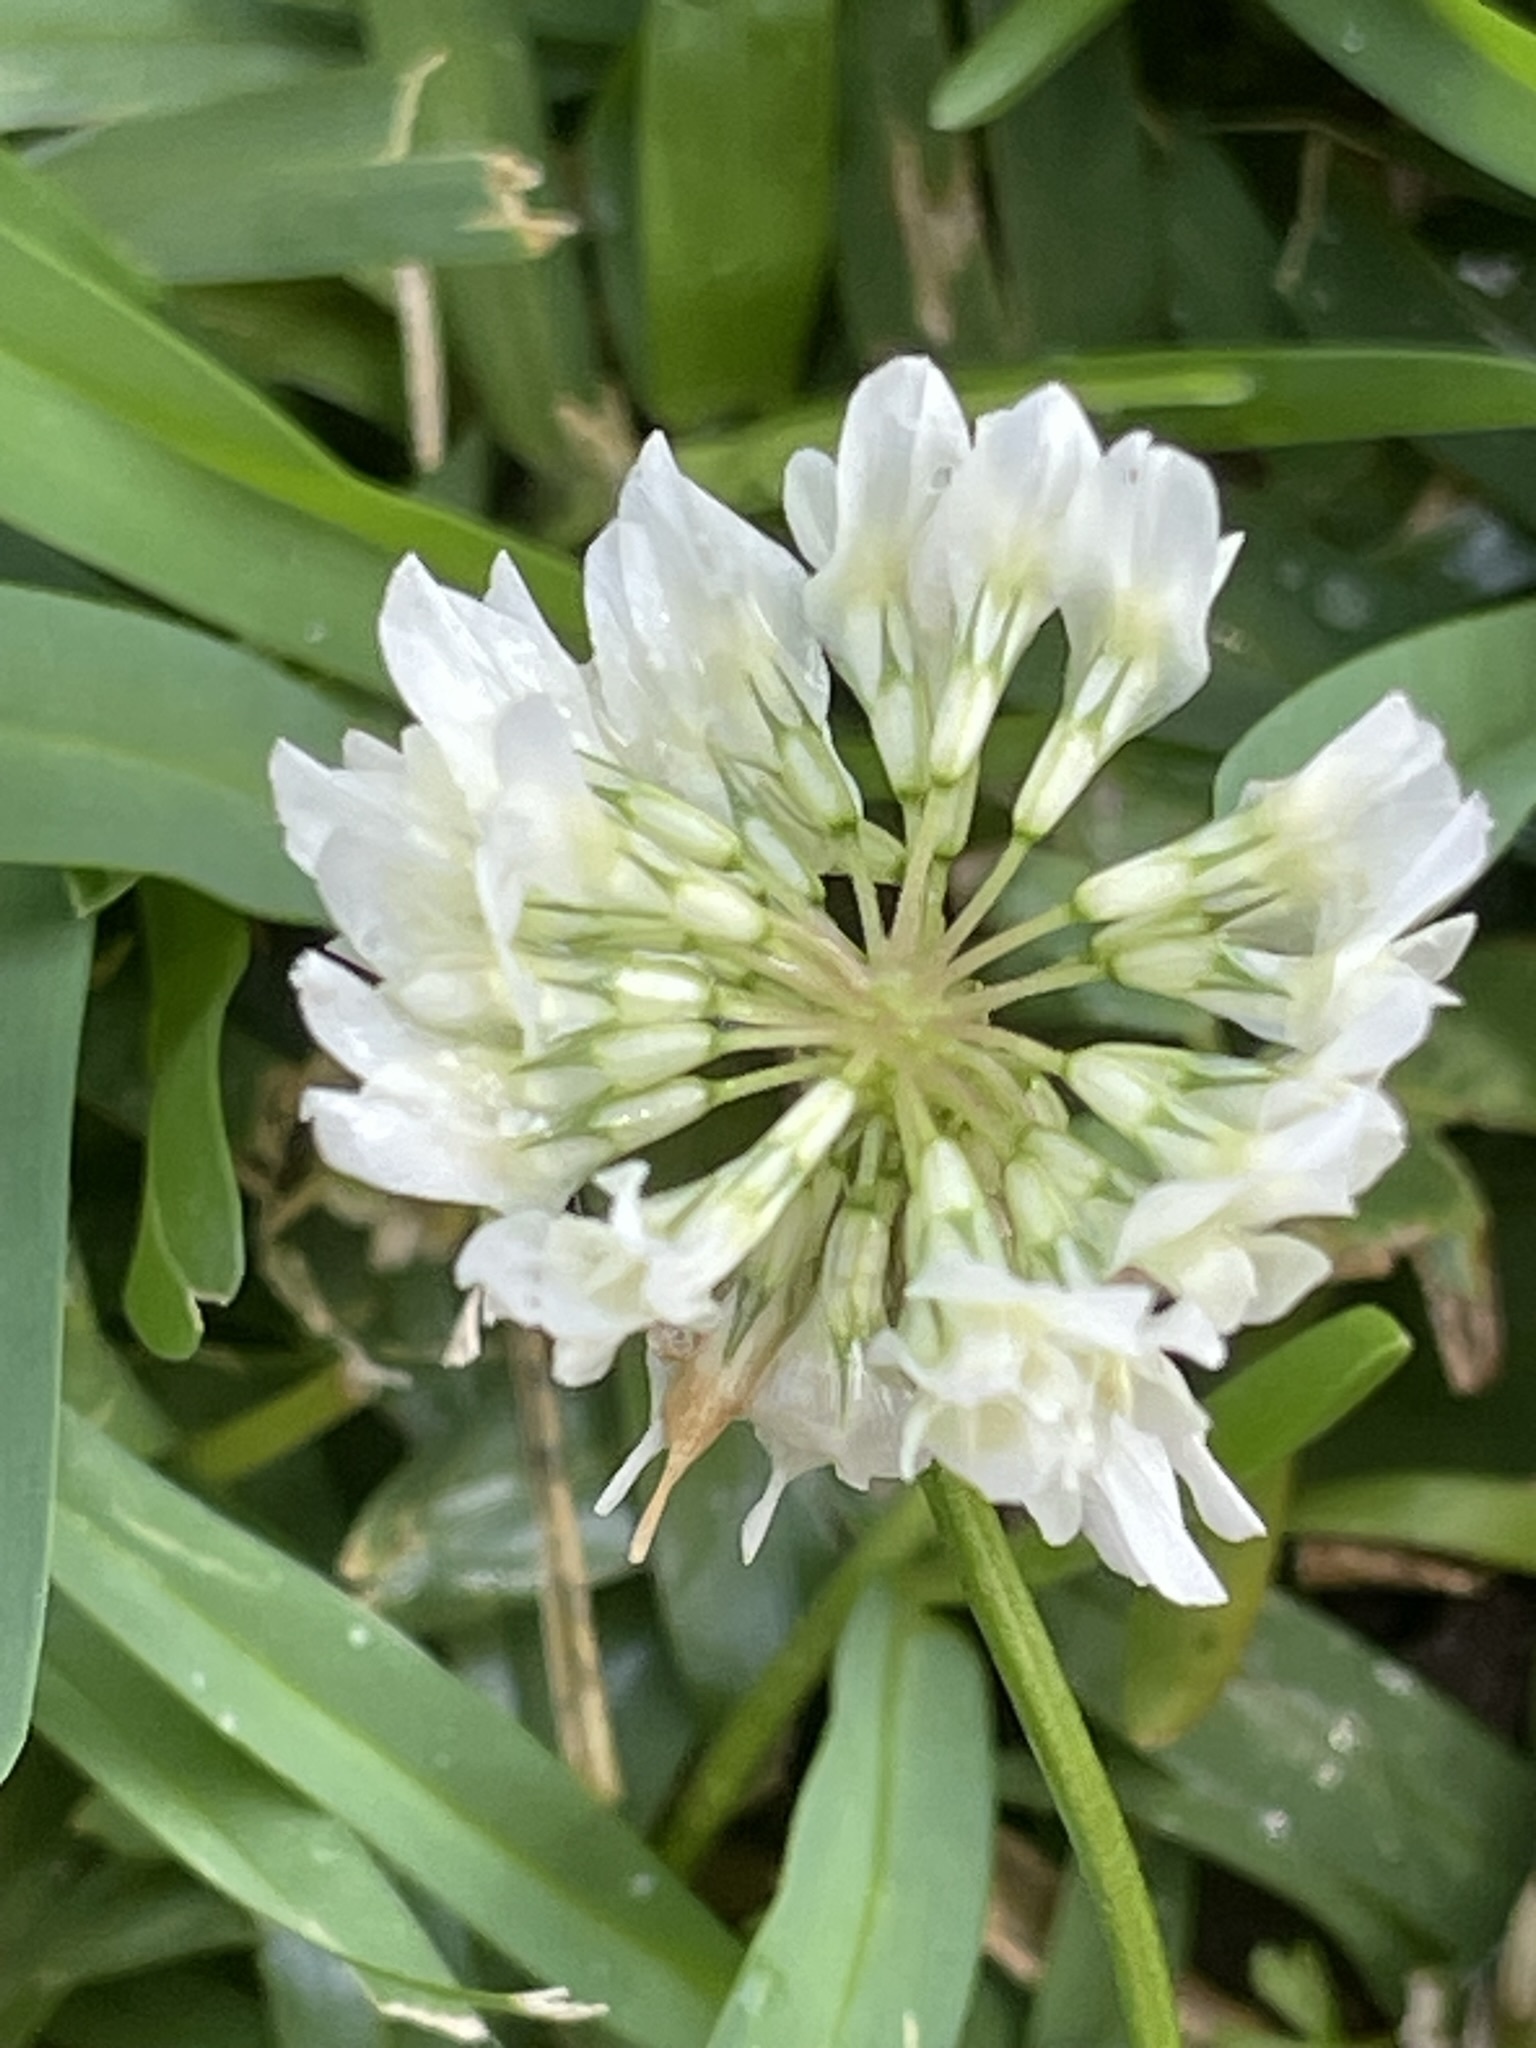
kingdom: Plantae
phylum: Tracheophyta
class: Magnoliopsida
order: Fabales
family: Fabaceae
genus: Trifolium
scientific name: Trifolium repens
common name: White clover
